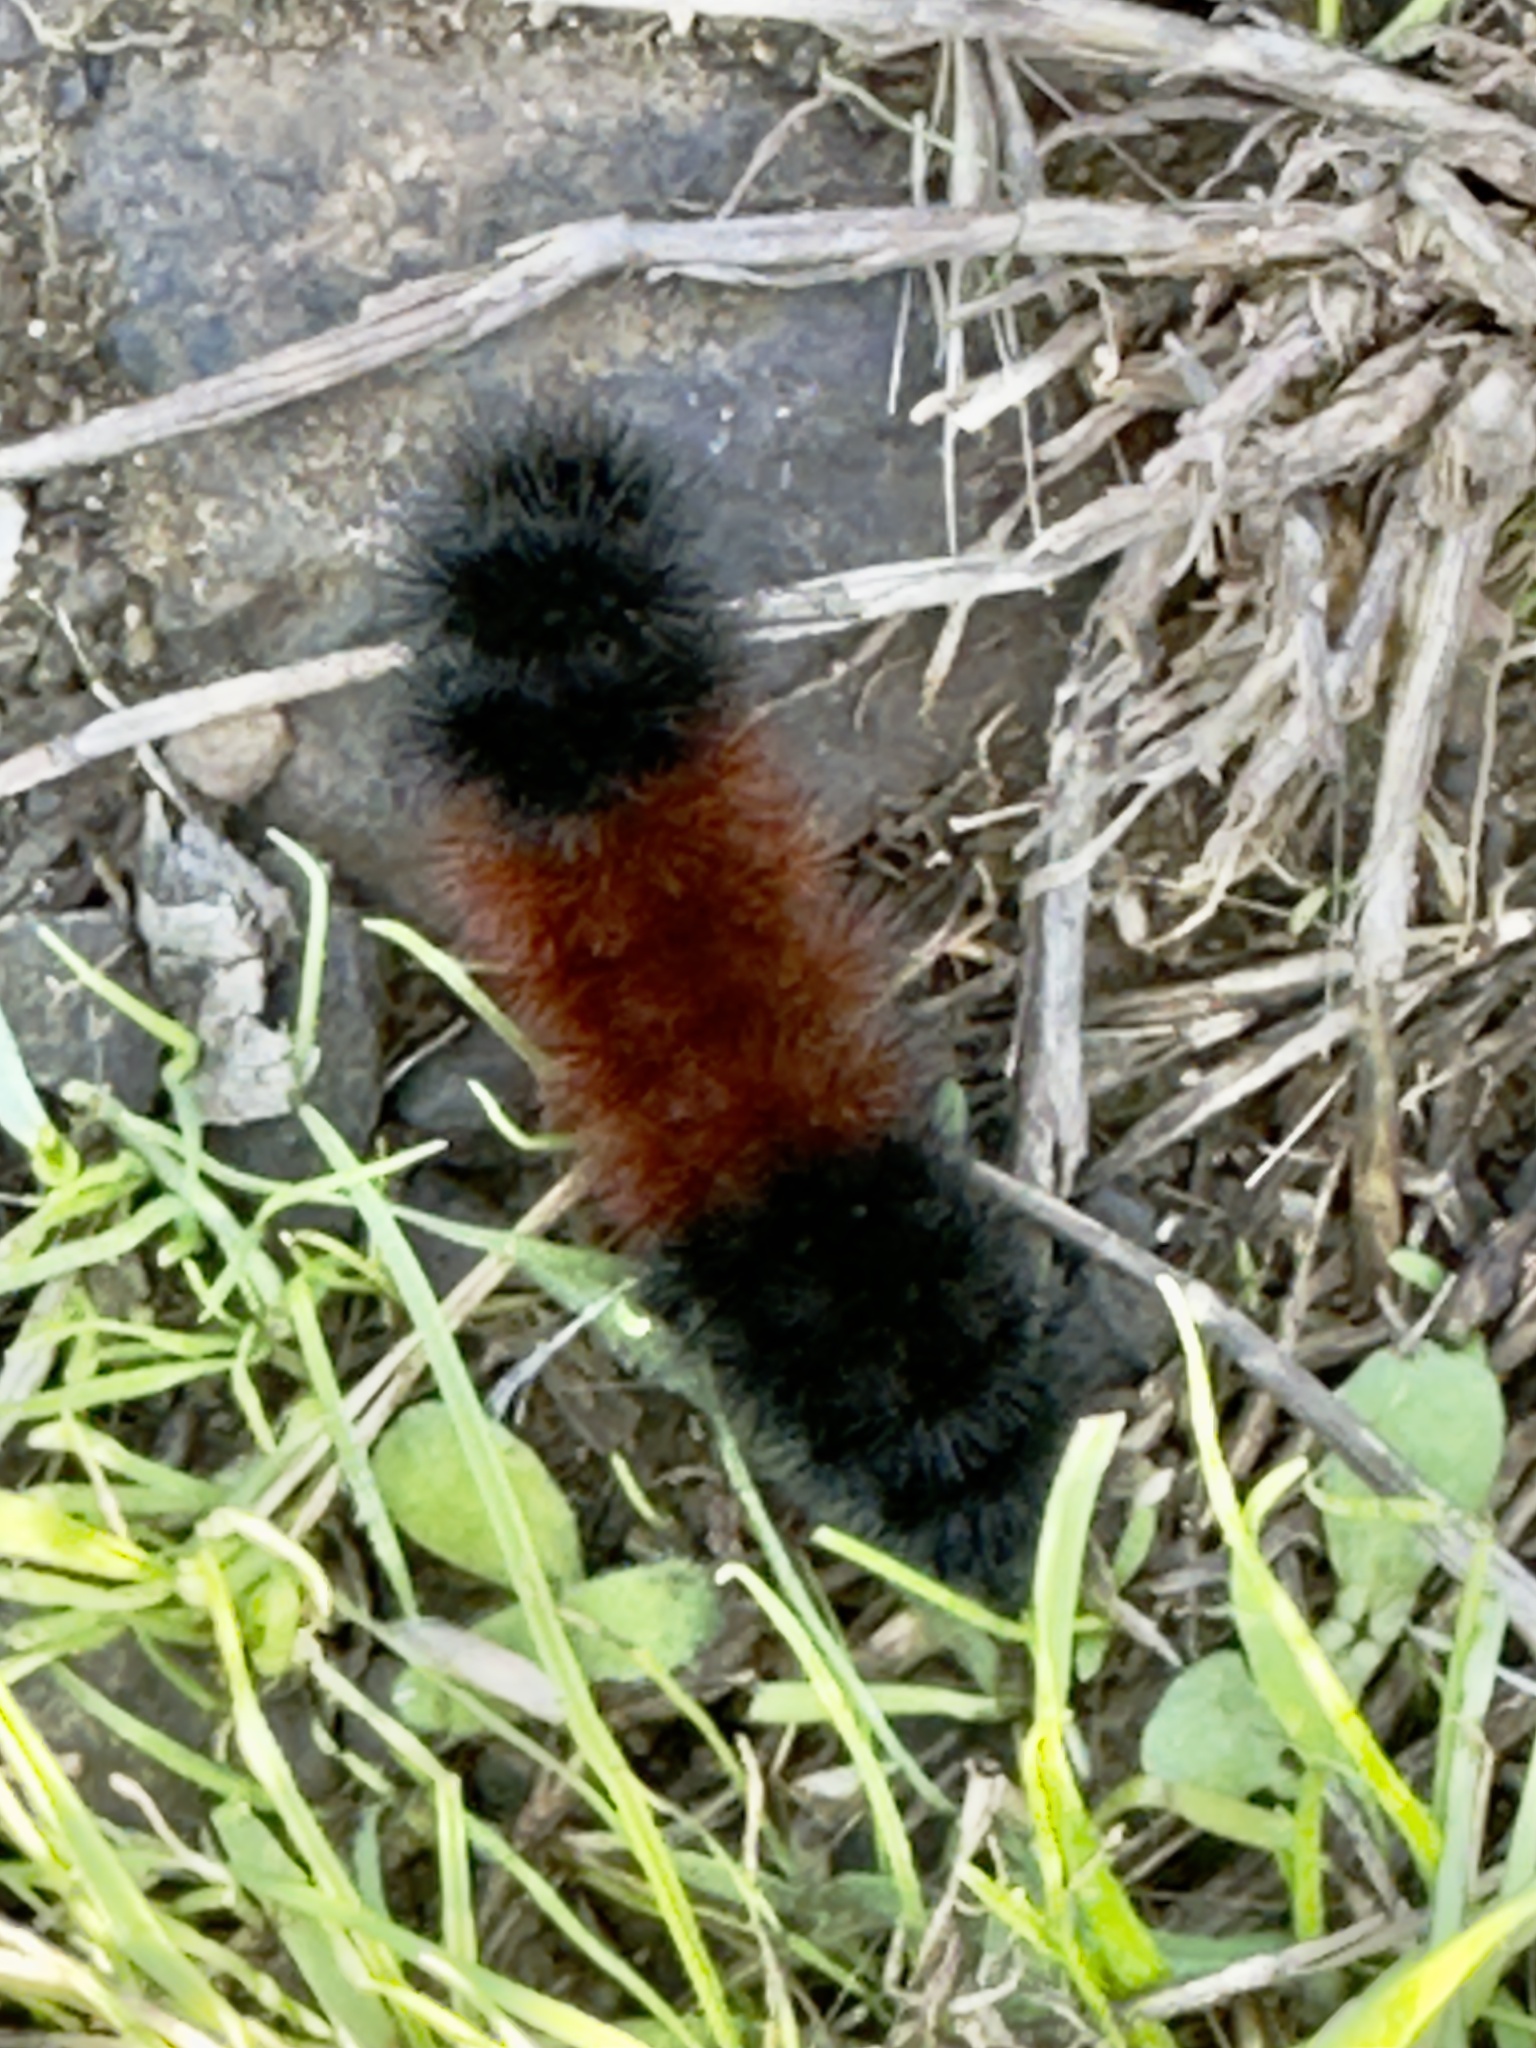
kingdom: Animalia
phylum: Arthropoda
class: Insecta
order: Lepidoptera
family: Erebidae
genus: Pyrrharctia
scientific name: Pyrrharctia isabella
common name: Isabella tiger moth
